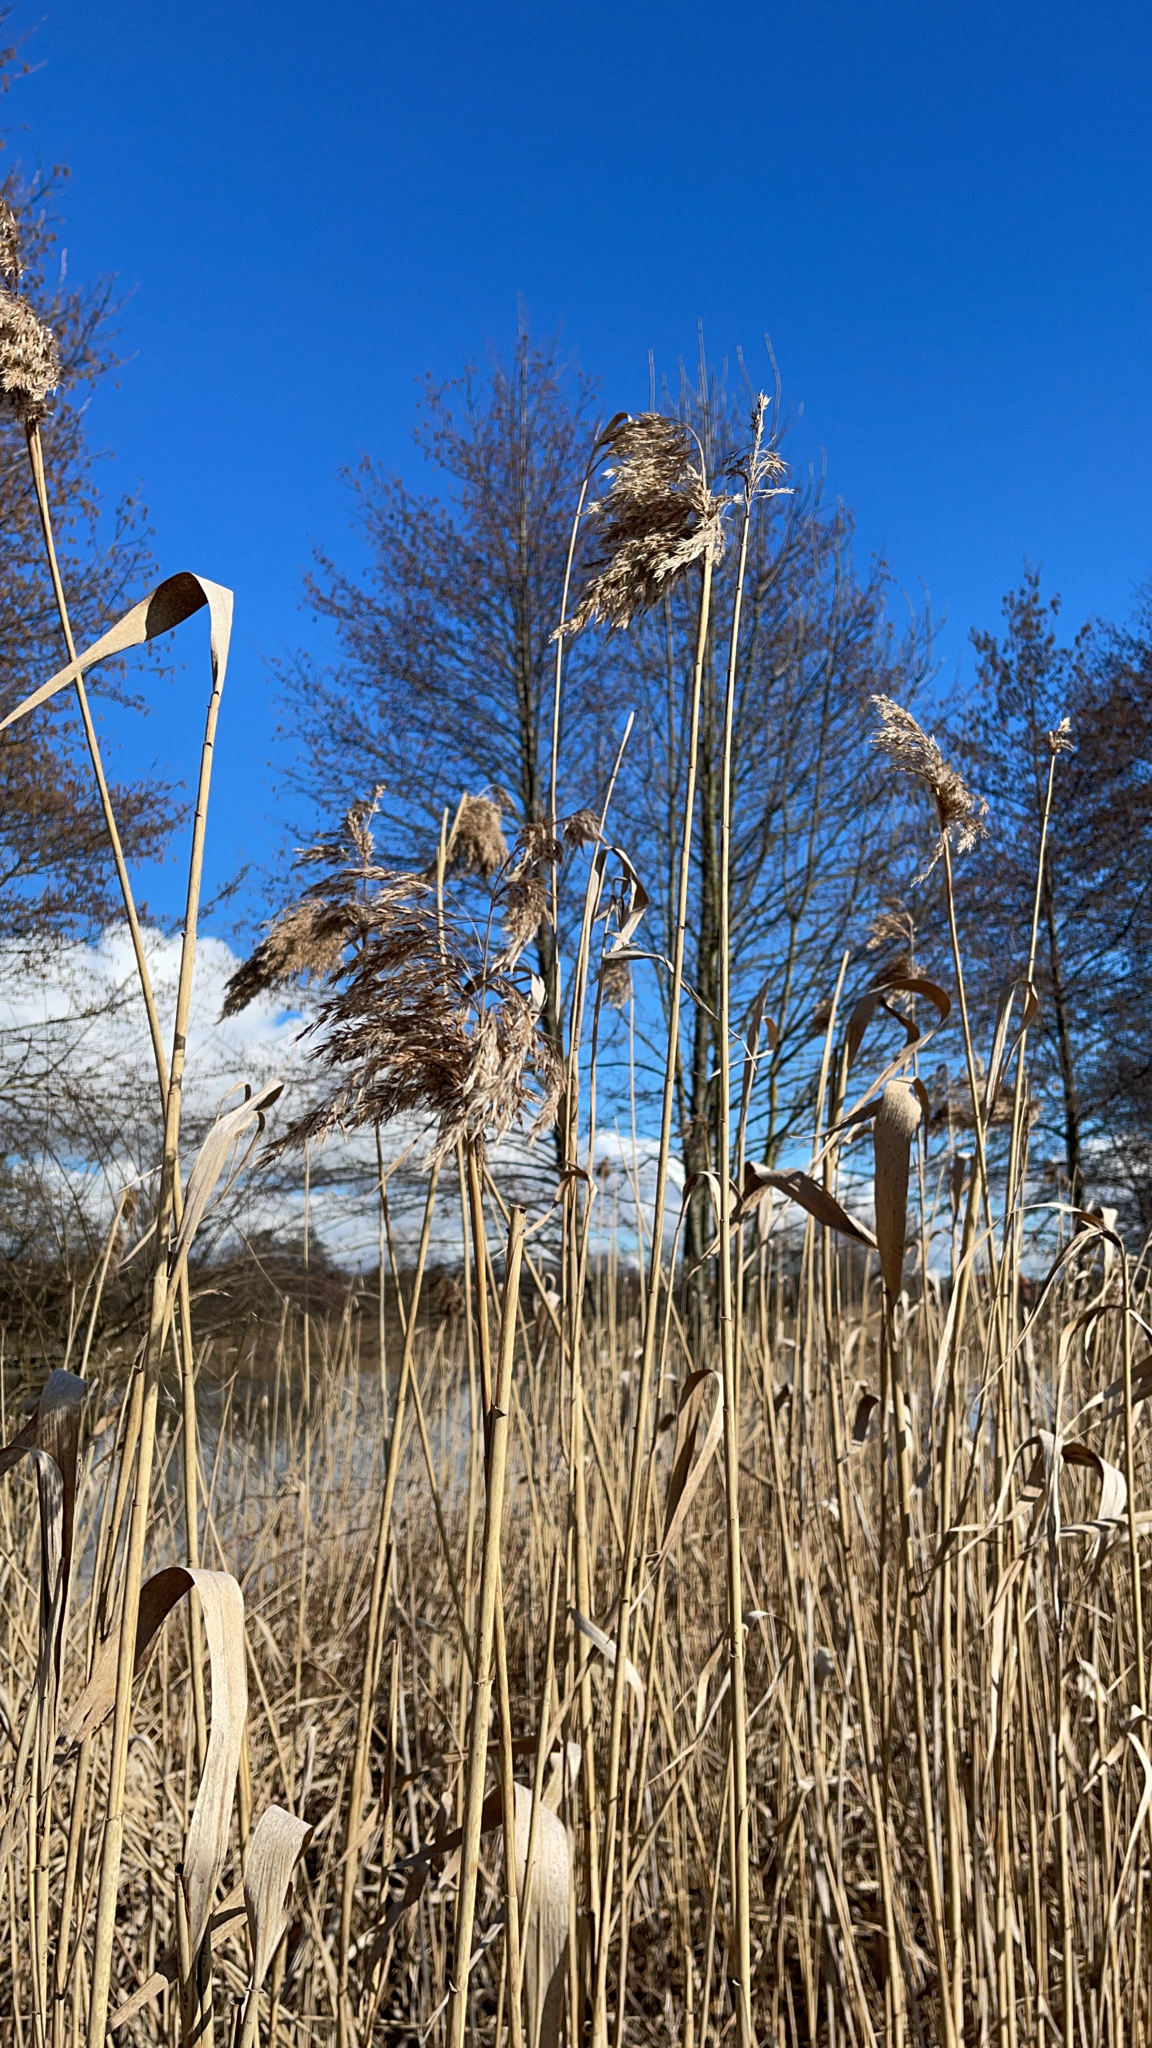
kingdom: Plantae
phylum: Tracheophyta
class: Liliopsida
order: Poales
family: Poaceae
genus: Phragmites
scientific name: Phragmites australis
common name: Common reed
